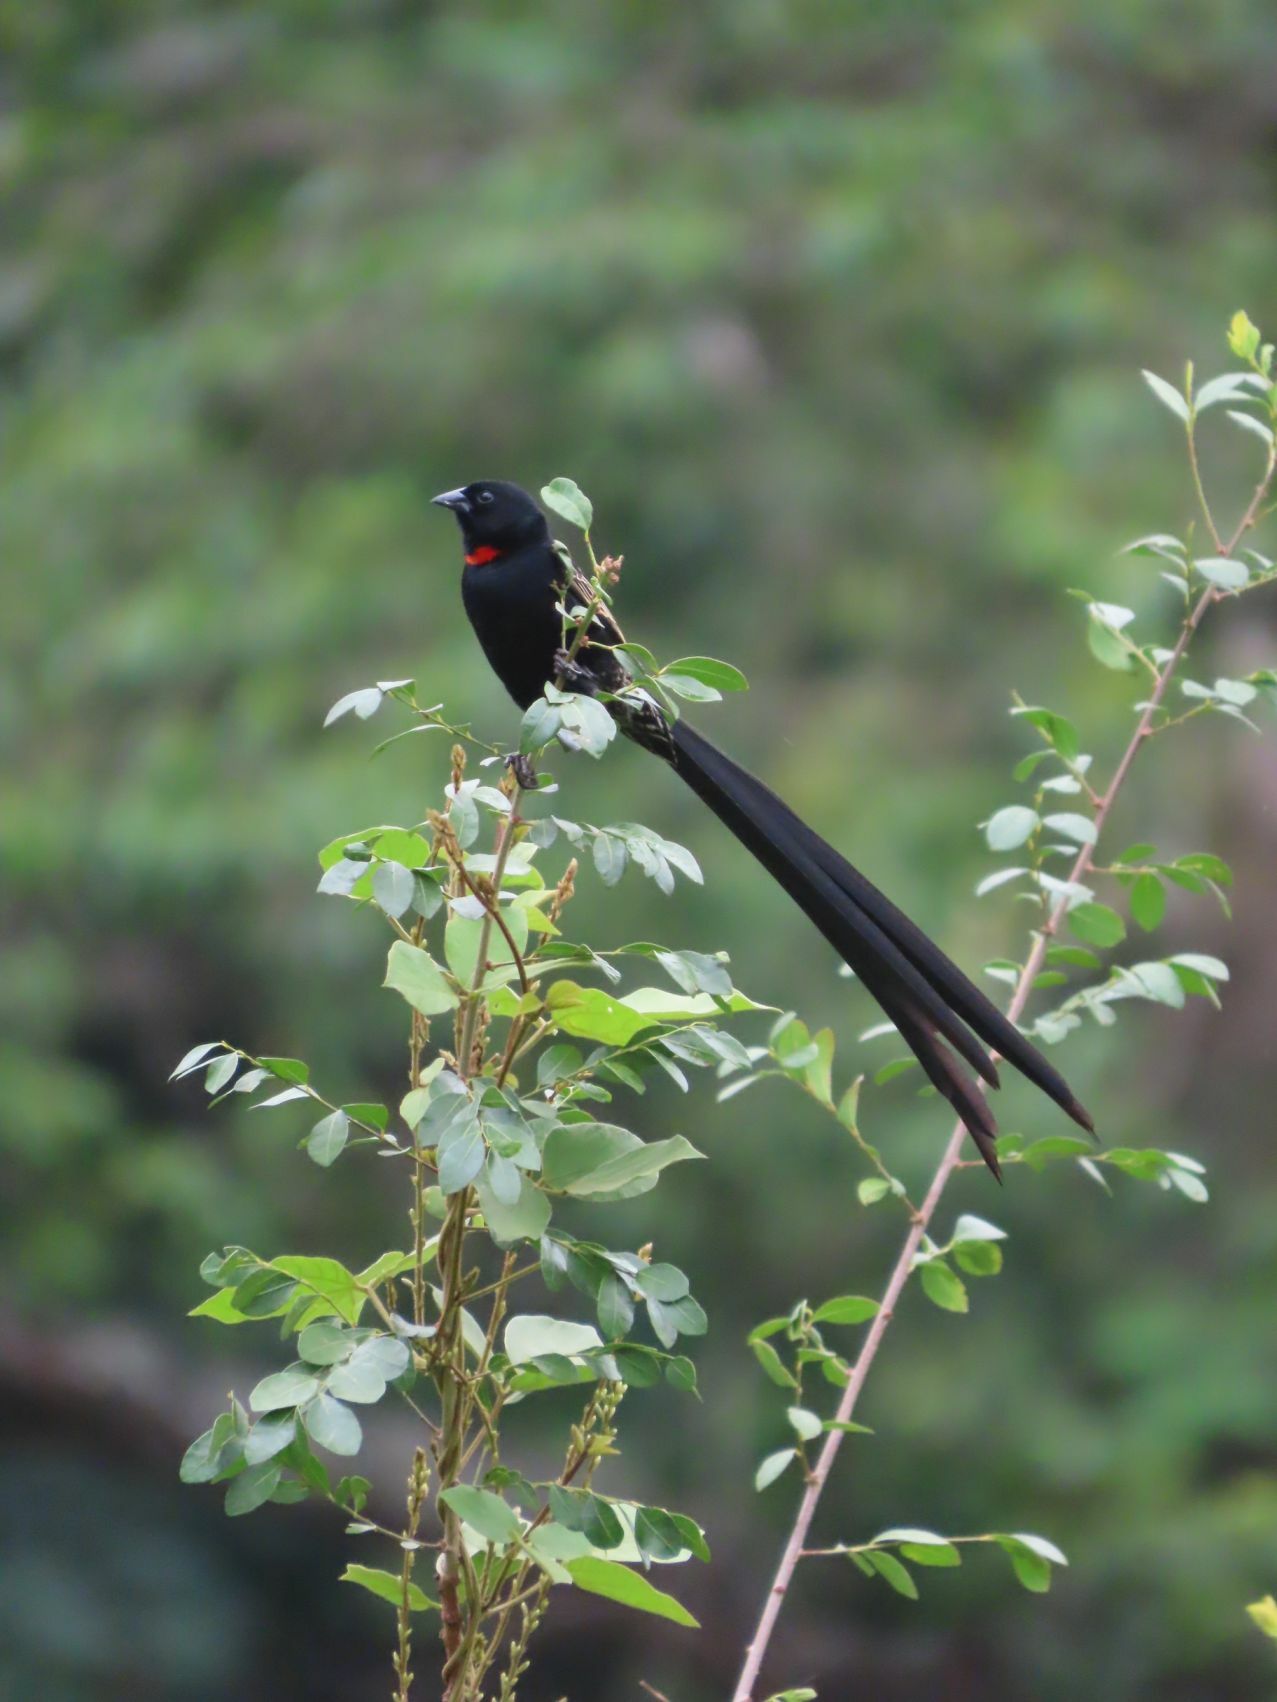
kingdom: Animalia
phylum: Chordata
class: Aves
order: Passeriformes
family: Ploceidae
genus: Euplectes
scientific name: Euplectes ardens
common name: Red-collared widowbird
